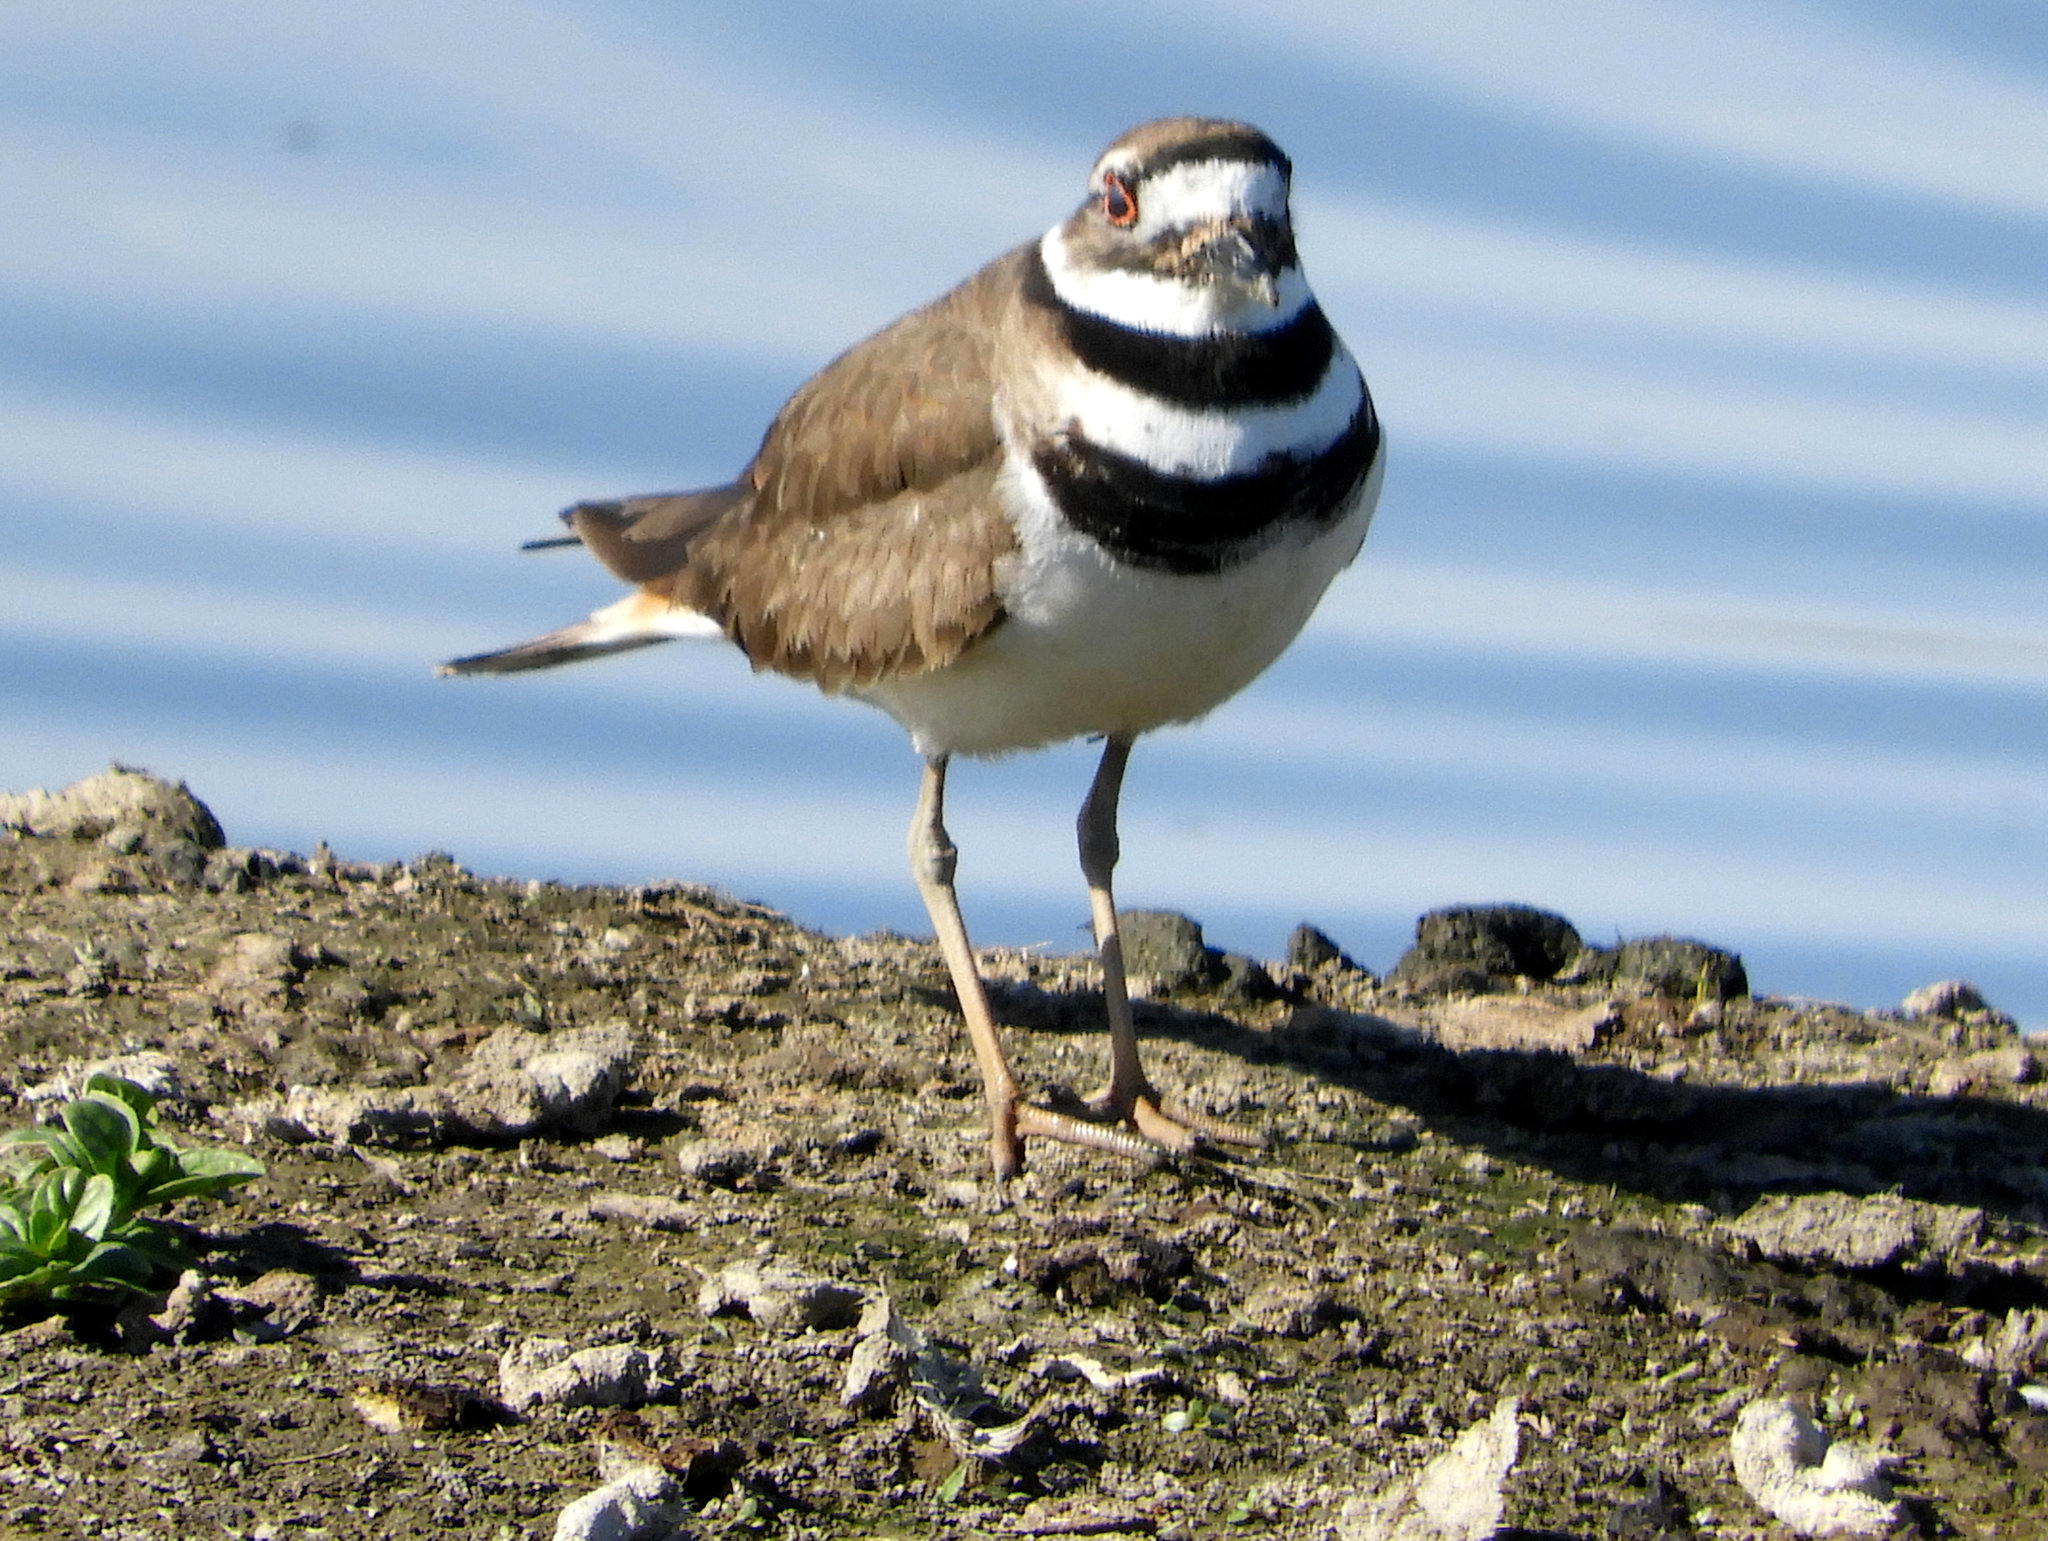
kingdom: Animalia
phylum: Chordata
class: Aves
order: Charadriiformes
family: Charadriidae
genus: Charadrius
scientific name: Charadrius vociferus
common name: Killdeer
